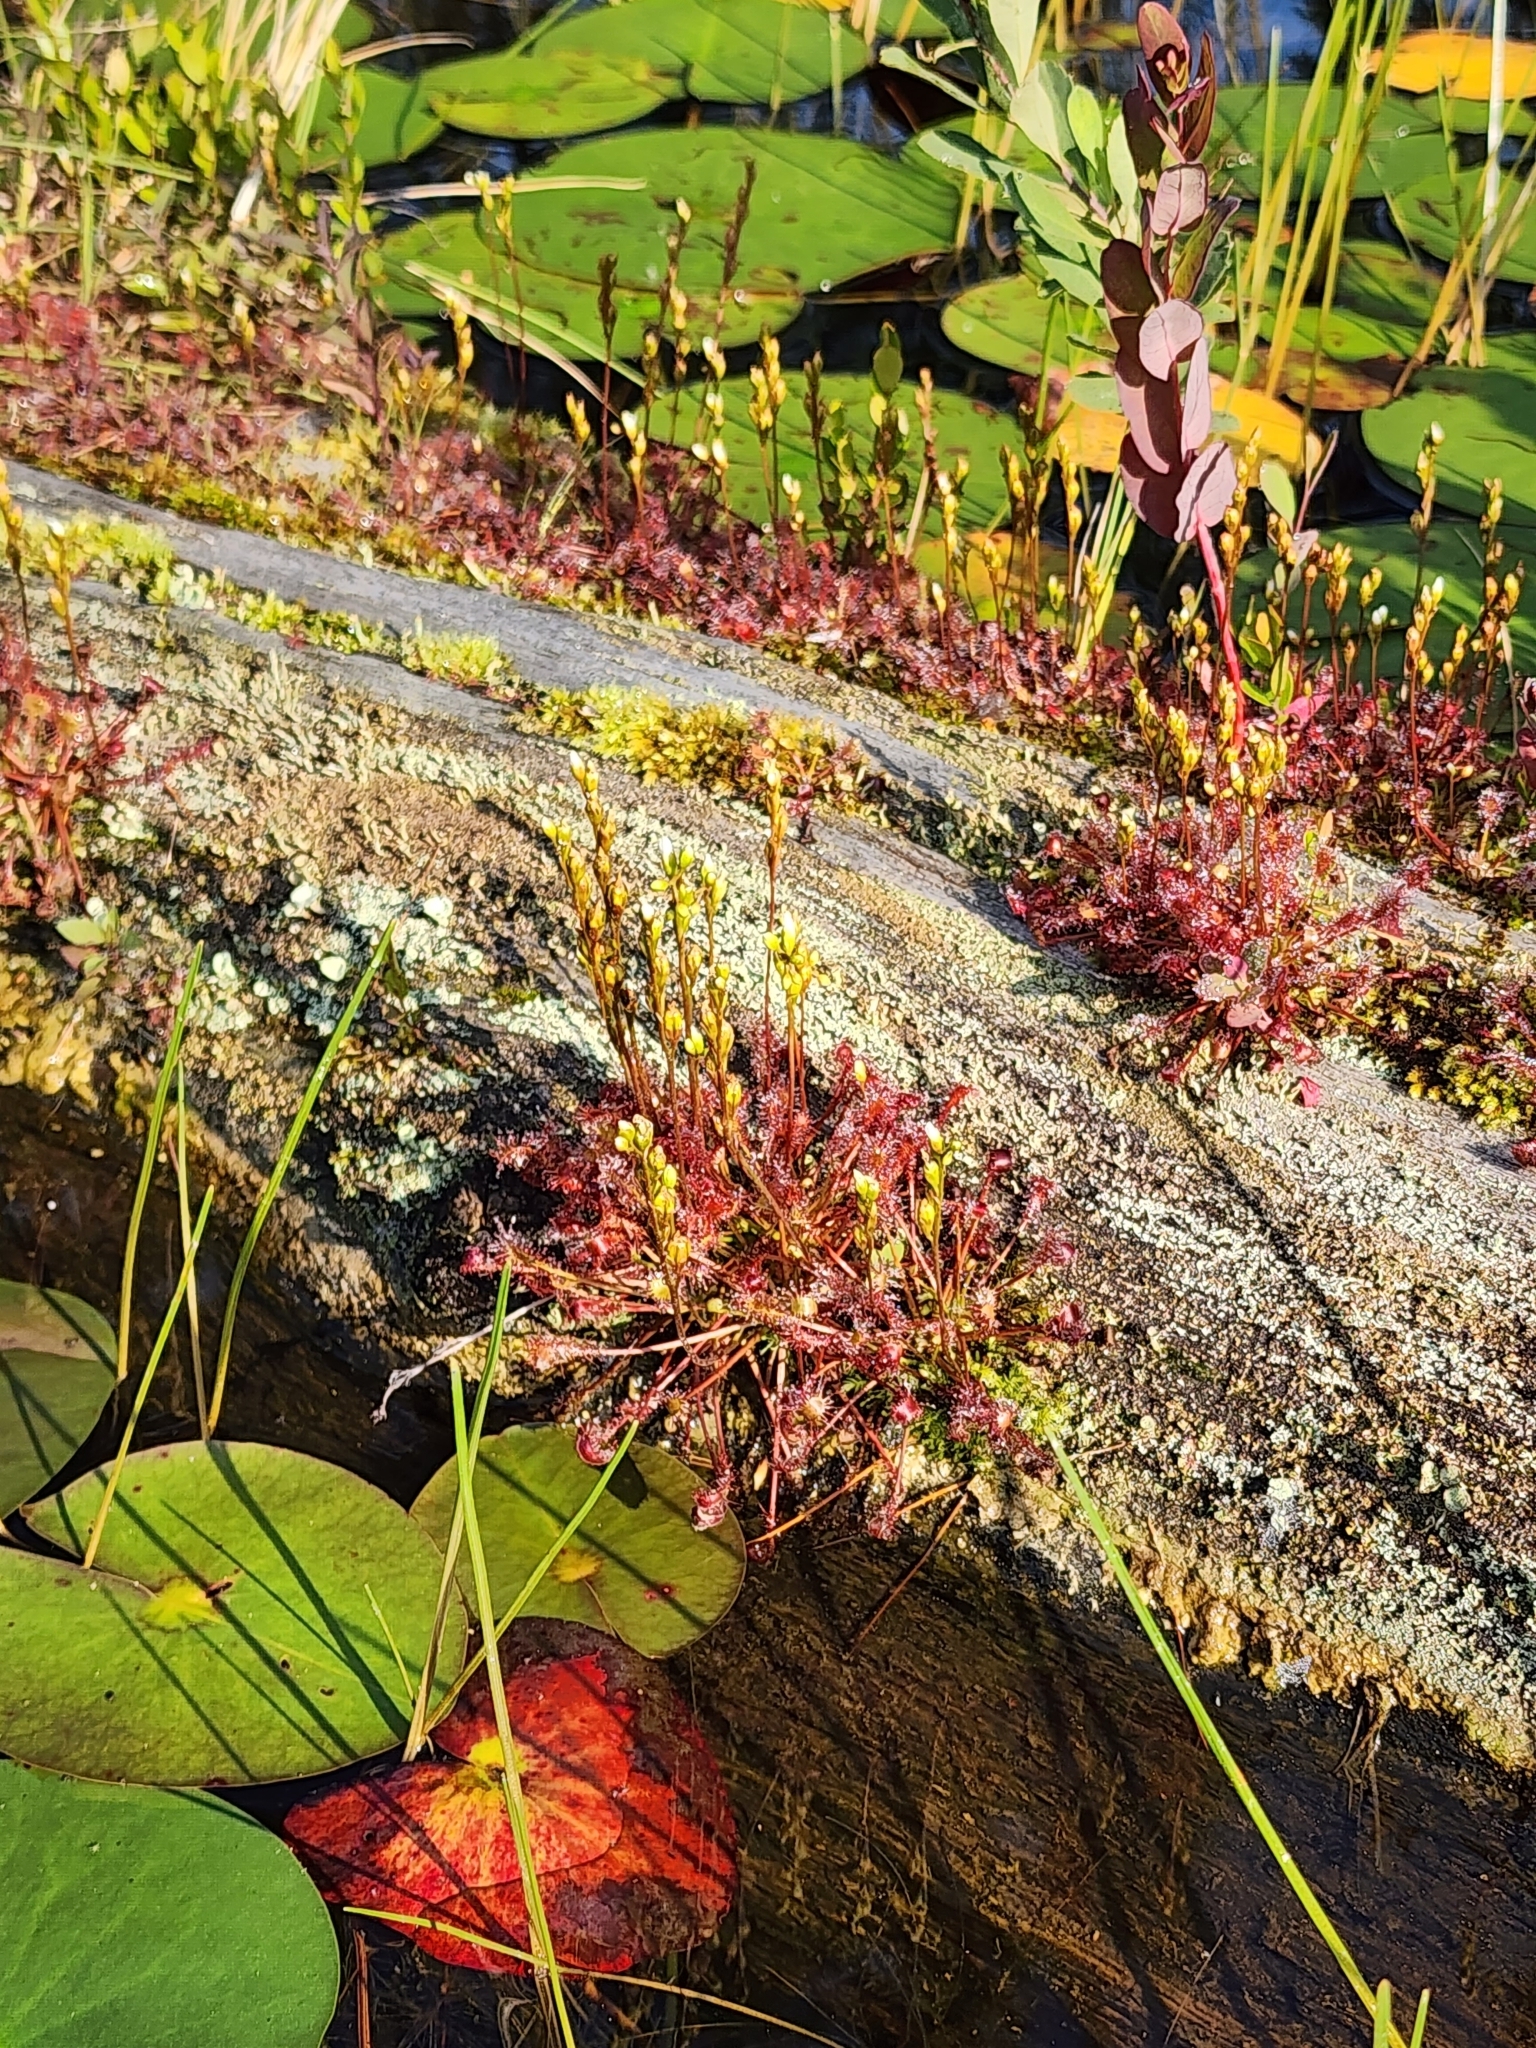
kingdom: Plantae
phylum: Tracheophyta
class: Magnoliopsida
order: Caryophyllales
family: Droseraceae
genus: Drosera
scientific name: Drosera intermedia
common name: Oblong-leaved sundew
